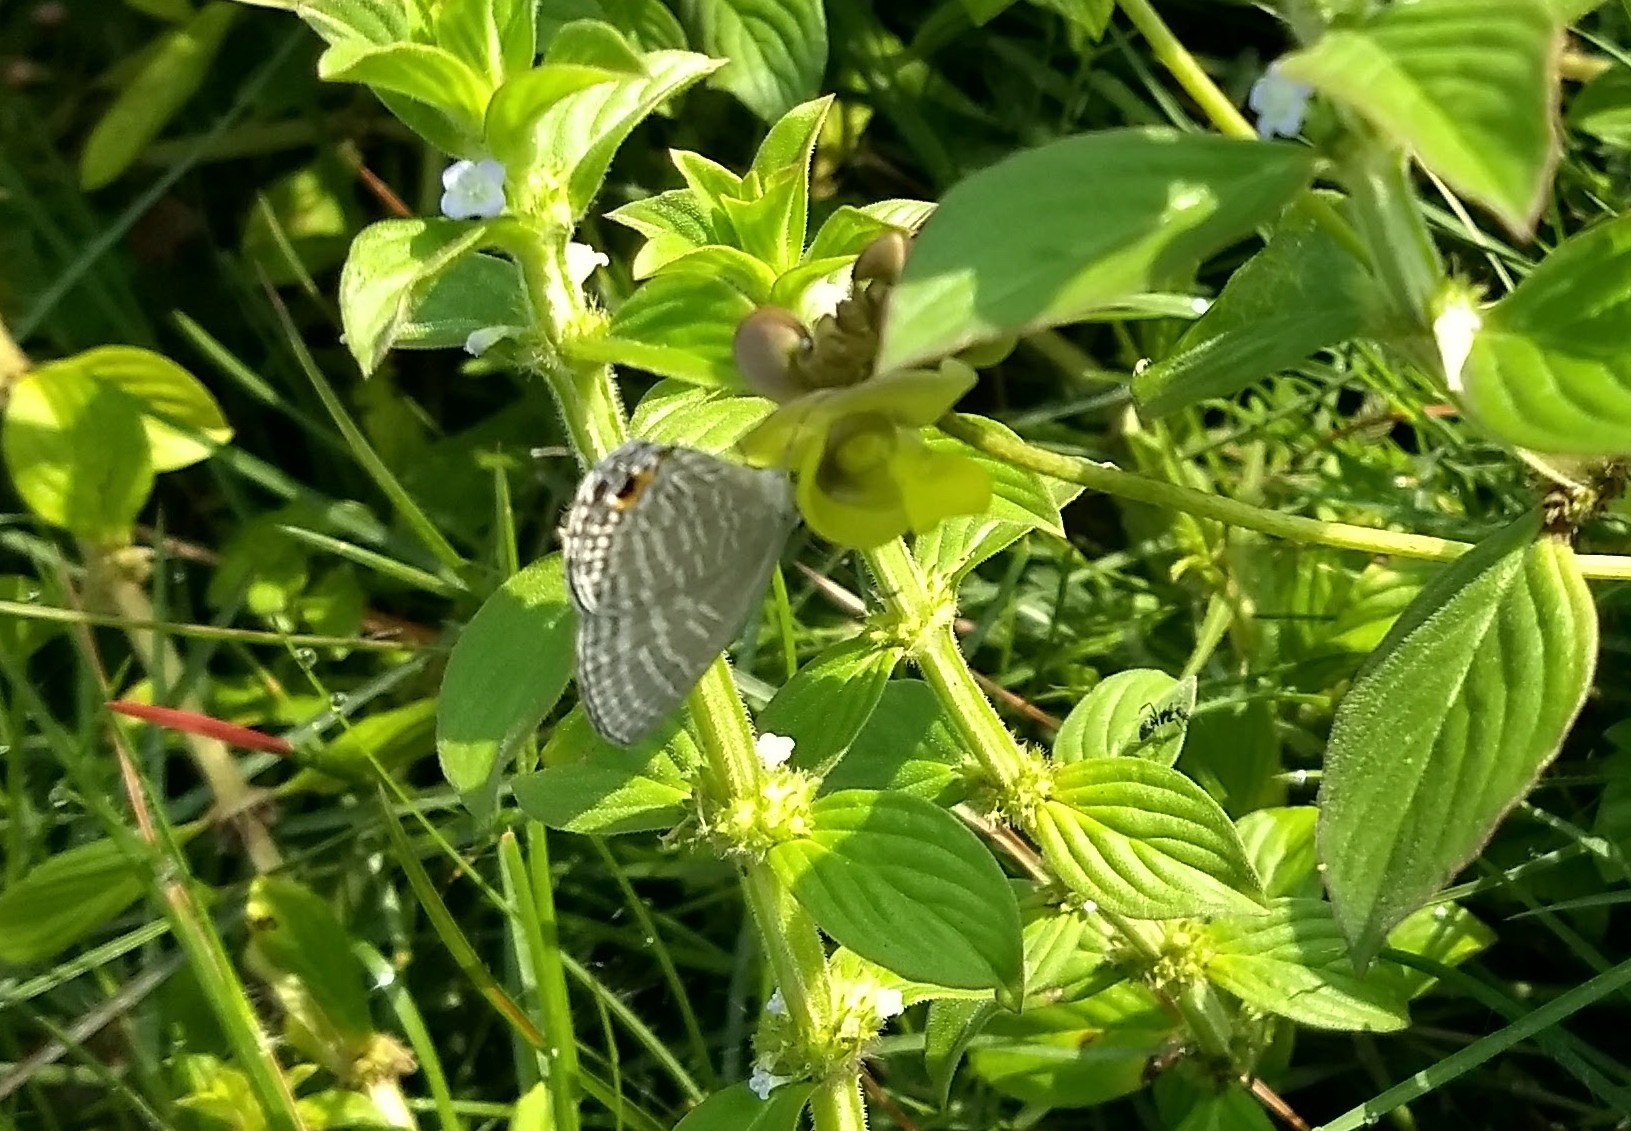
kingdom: Animalia
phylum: Arthropoda
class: Insecta
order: Lepidoptera
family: Lycaenidae
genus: Jamides
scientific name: Jamides celeno
